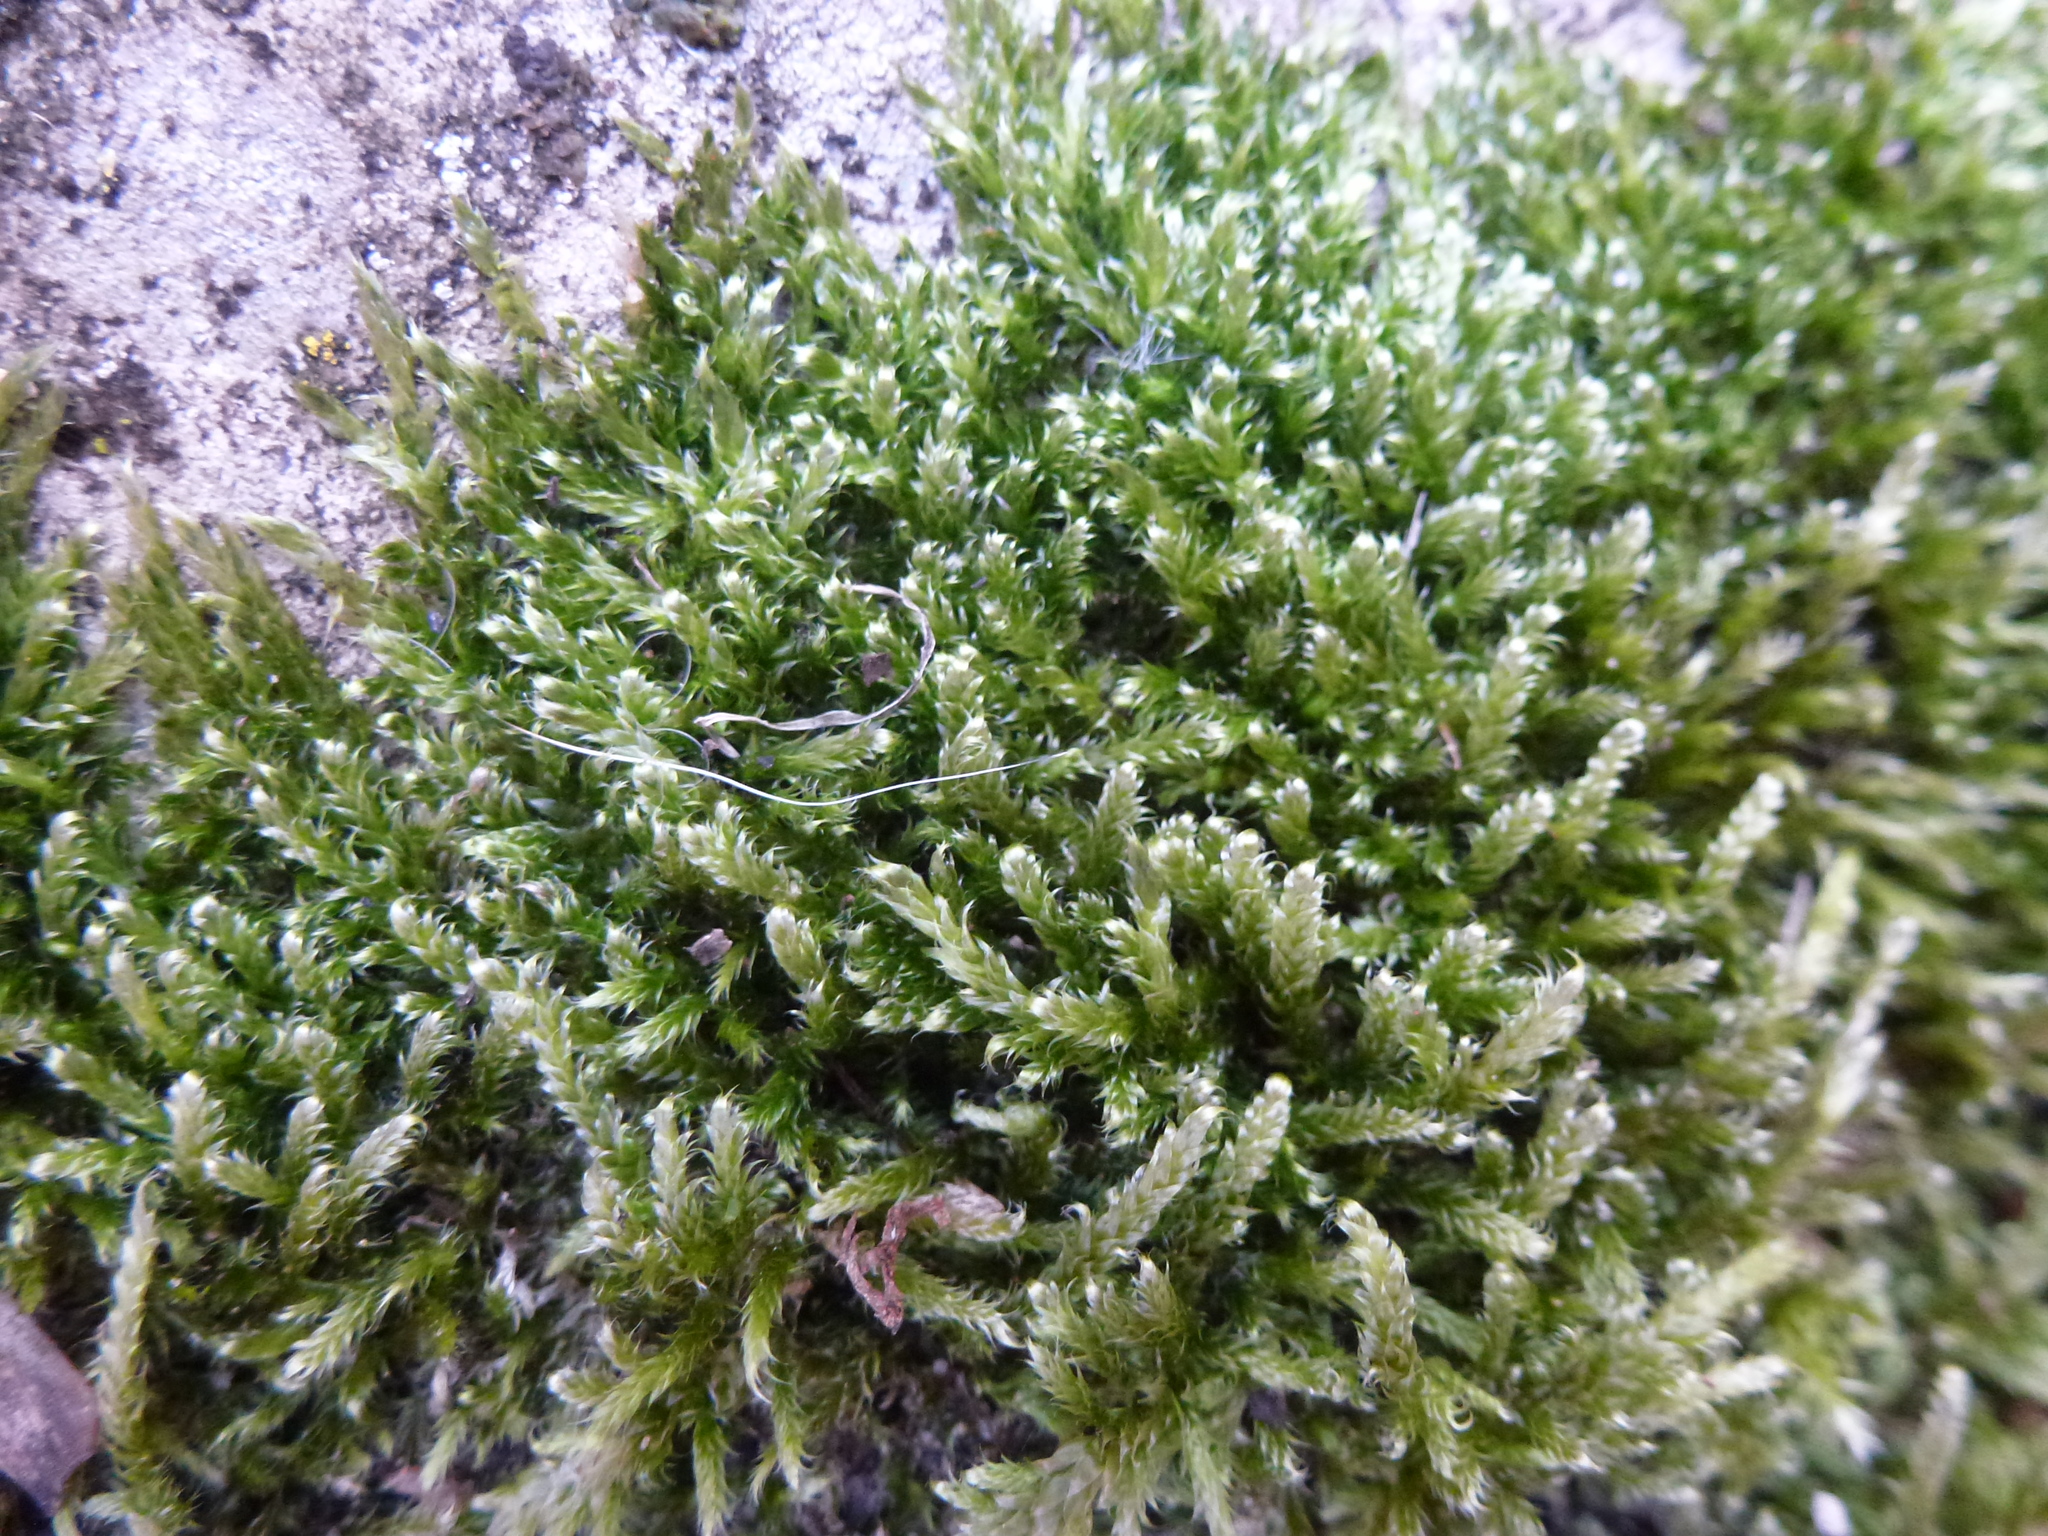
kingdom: Plantae
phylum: Bryophyta
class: Bryopsida
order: Hypnales
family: Hypnaceae
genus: Hypnum
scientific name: Hypnum cupressiforme
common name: Cypress-leaved plait-moss
